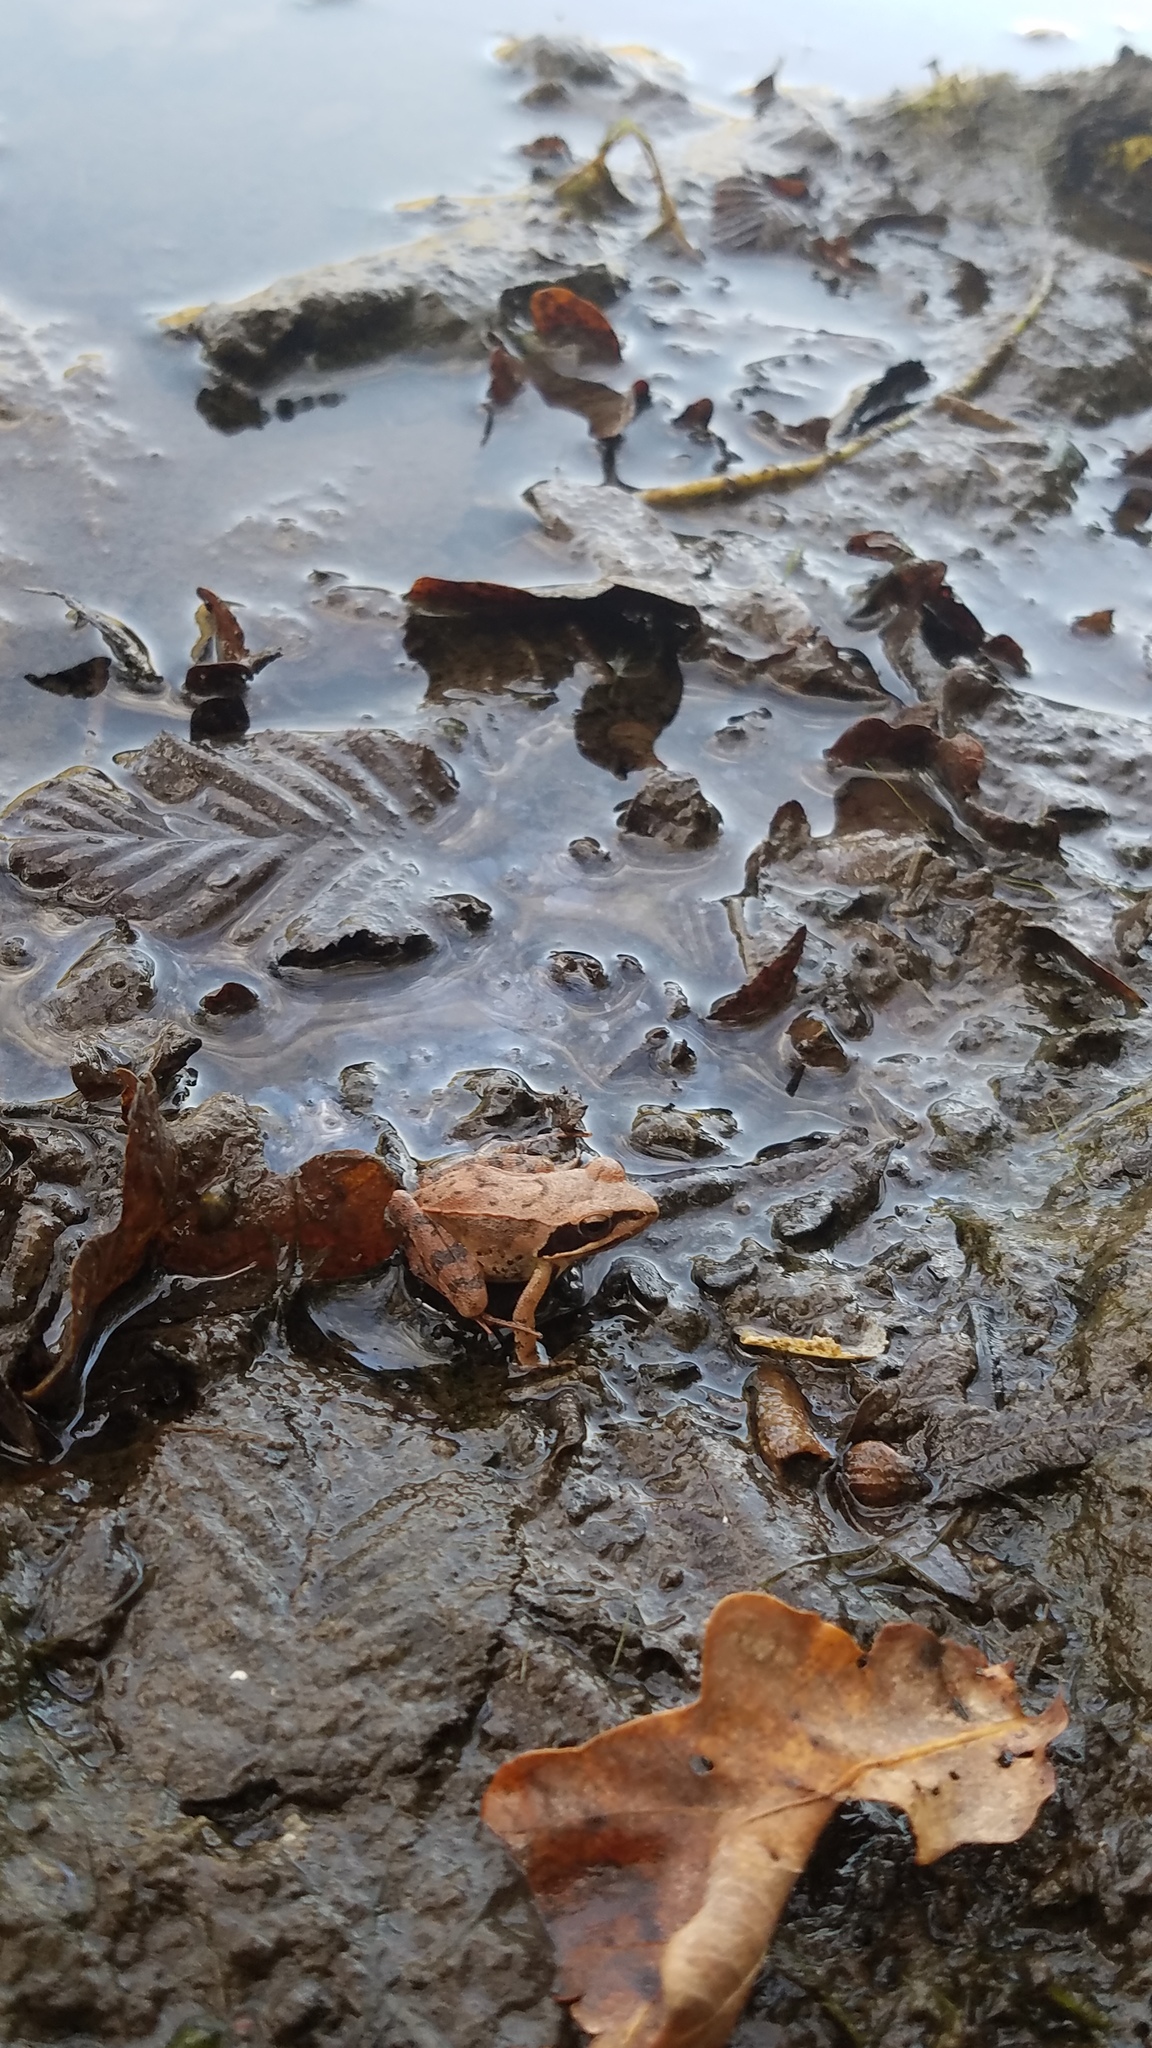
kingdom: Animalia
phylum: Chordata
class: Amphibia
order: Anura
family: Ranidae
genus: Rana
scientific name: Rana dalmatina
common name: Agile frog
